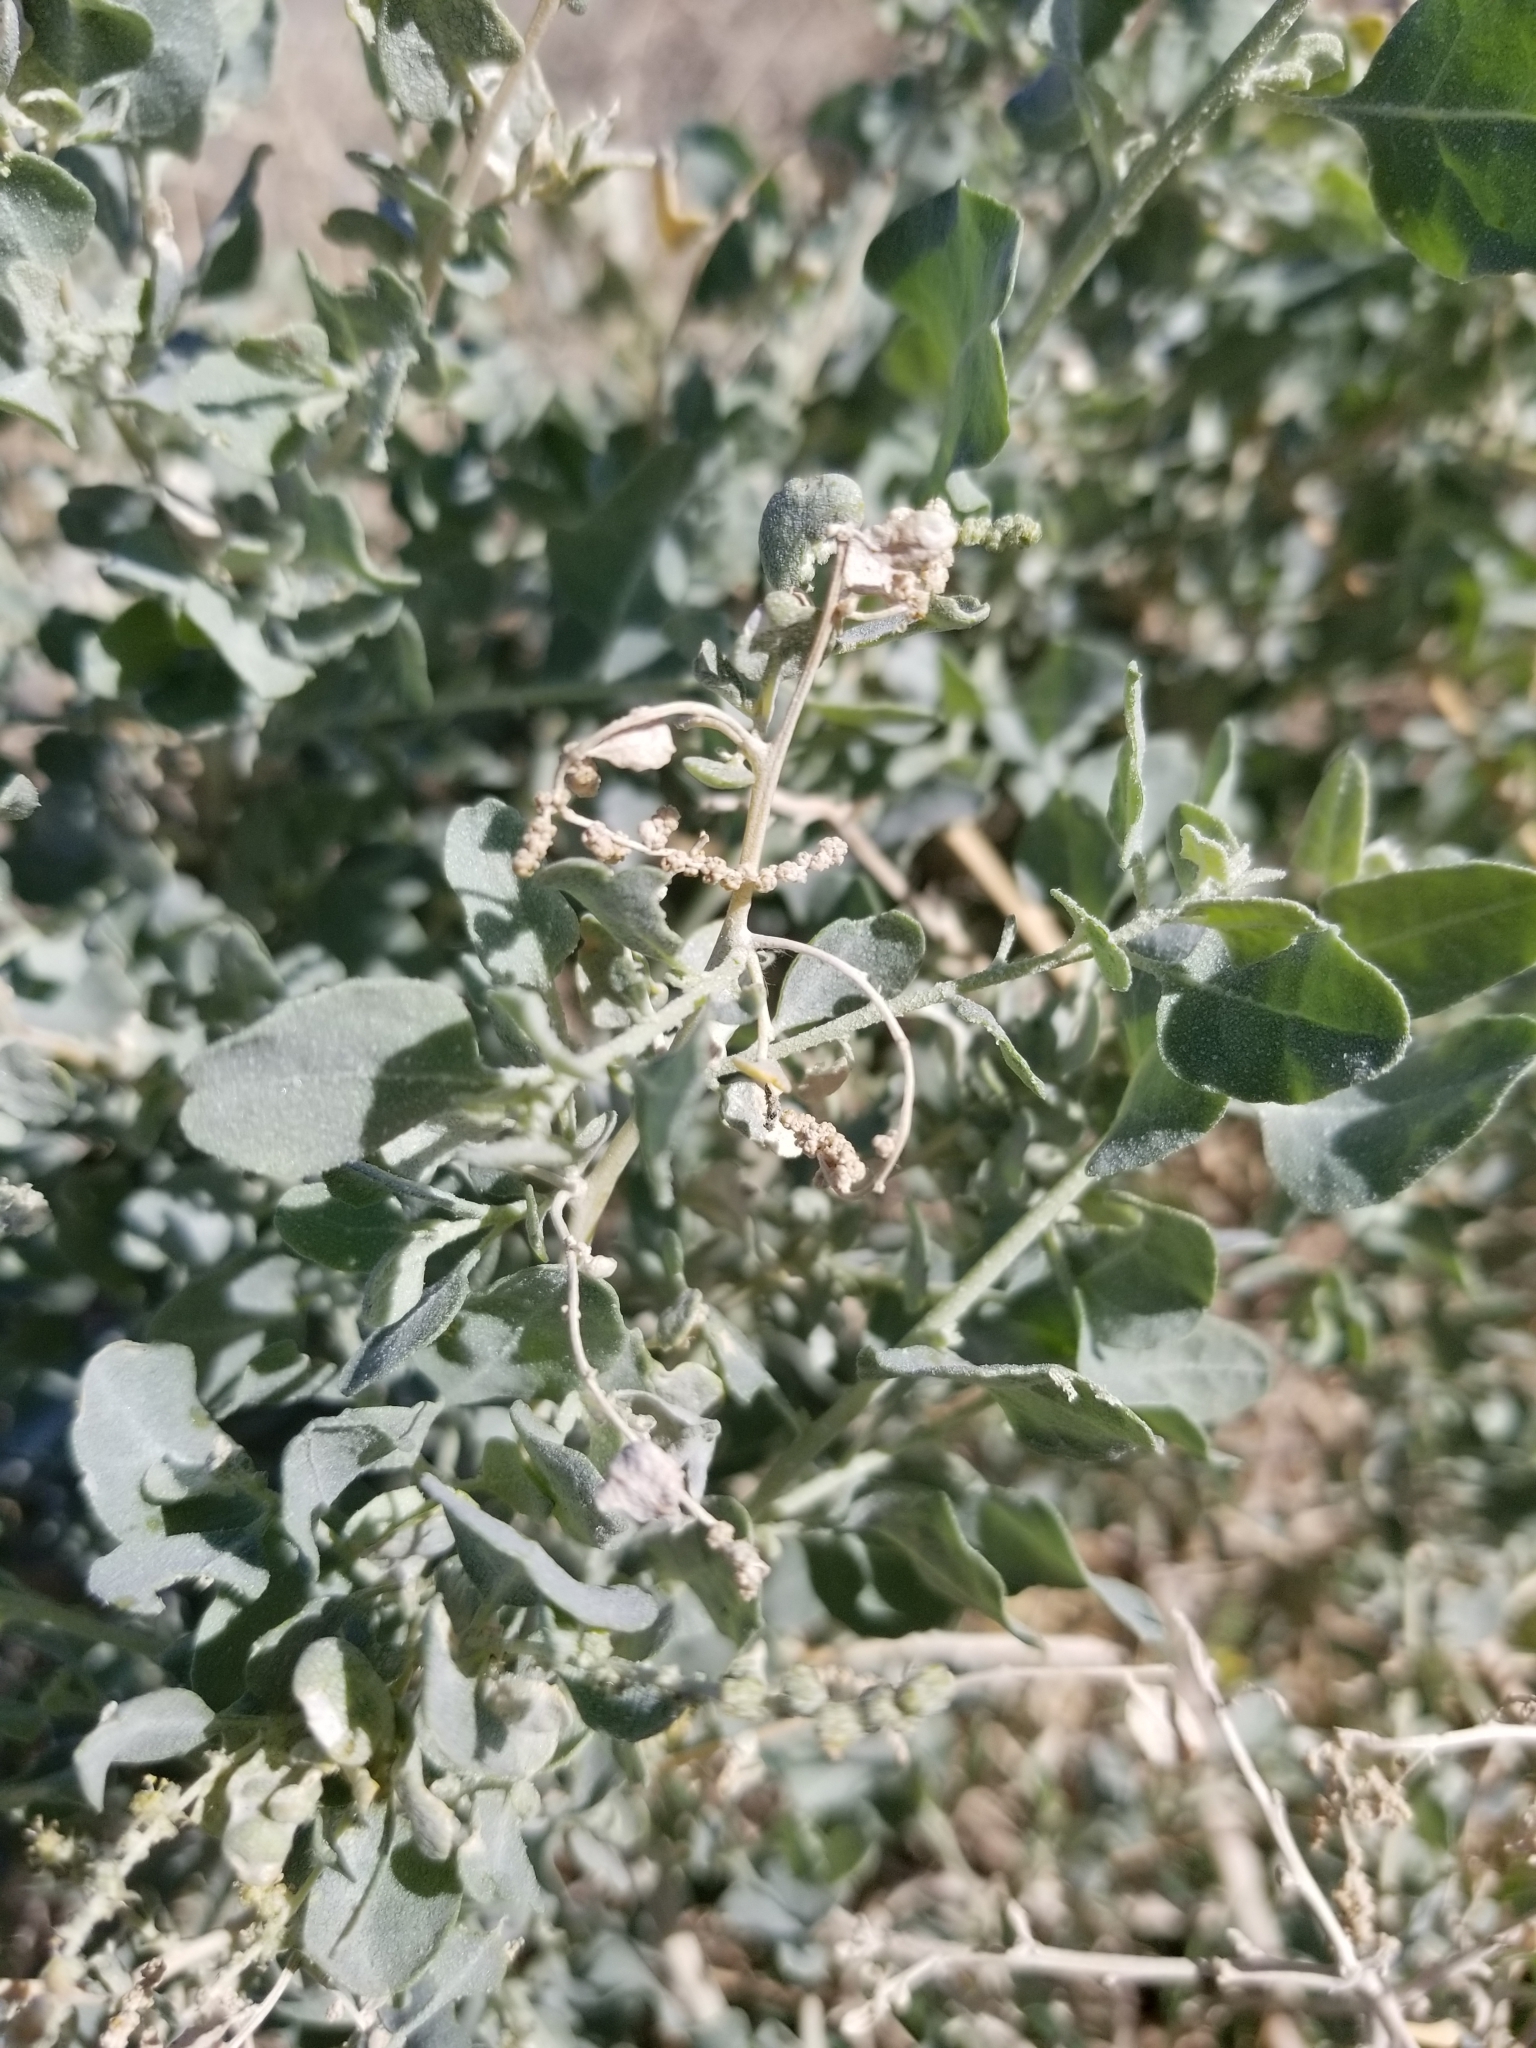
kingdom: Plantae
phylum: Tracheophyta
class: Magnoliopsida
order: Caryophyllales
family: Amaranthaceae
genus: Atriplex
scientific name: Atriplex lentiformis
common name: Big saltbush
